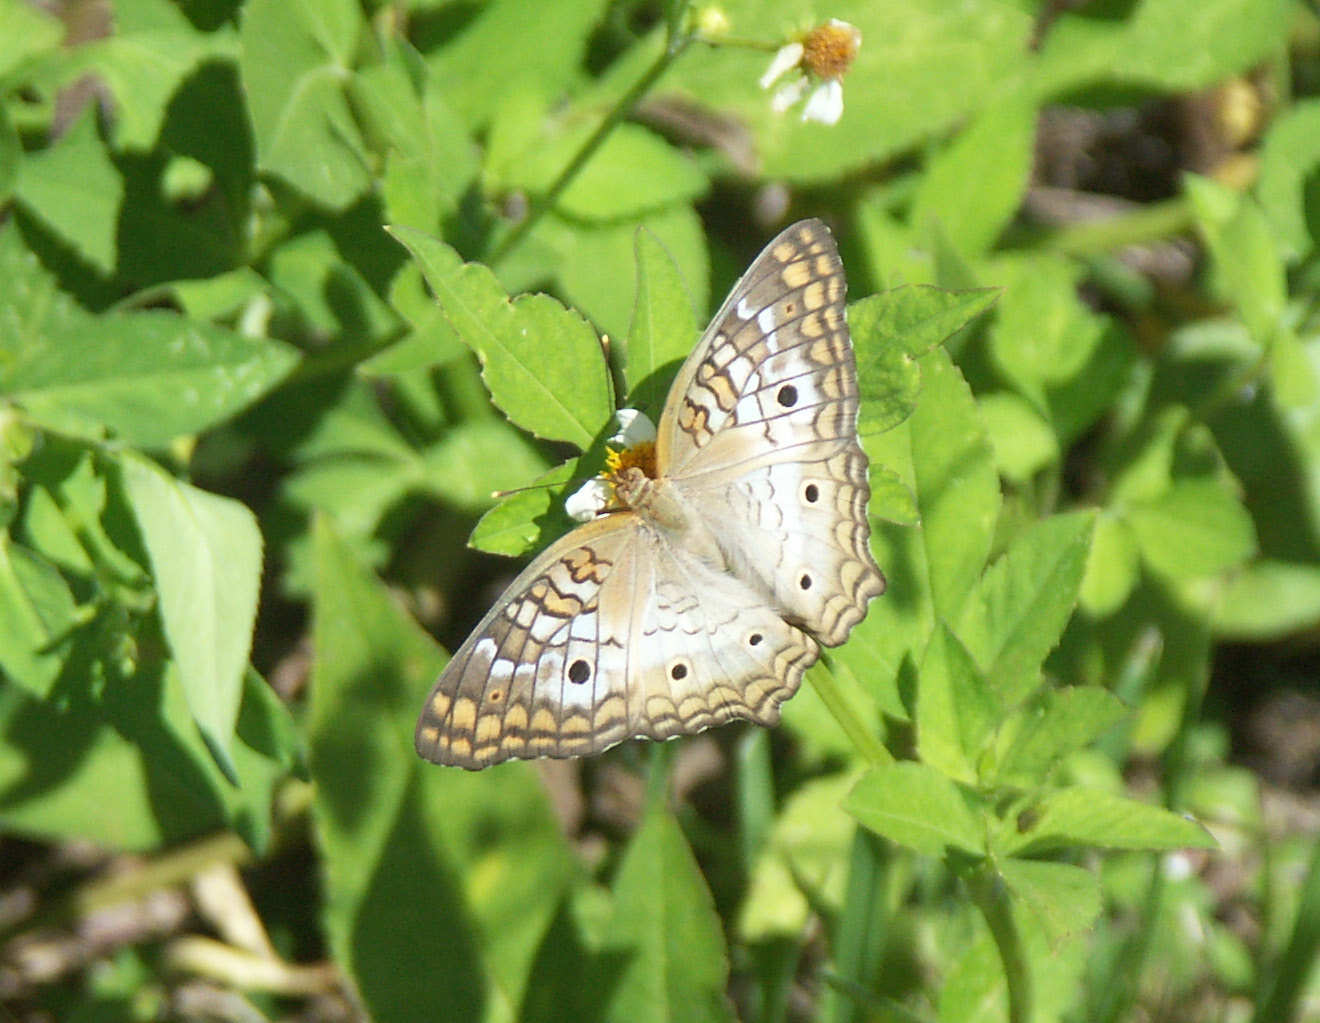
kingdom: Animalia
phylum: Arthropoda
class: Insecta
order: Lepidoptera
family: Nymphalidae
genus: Anartia
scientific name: Anartia jatrophae
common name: White peacock
